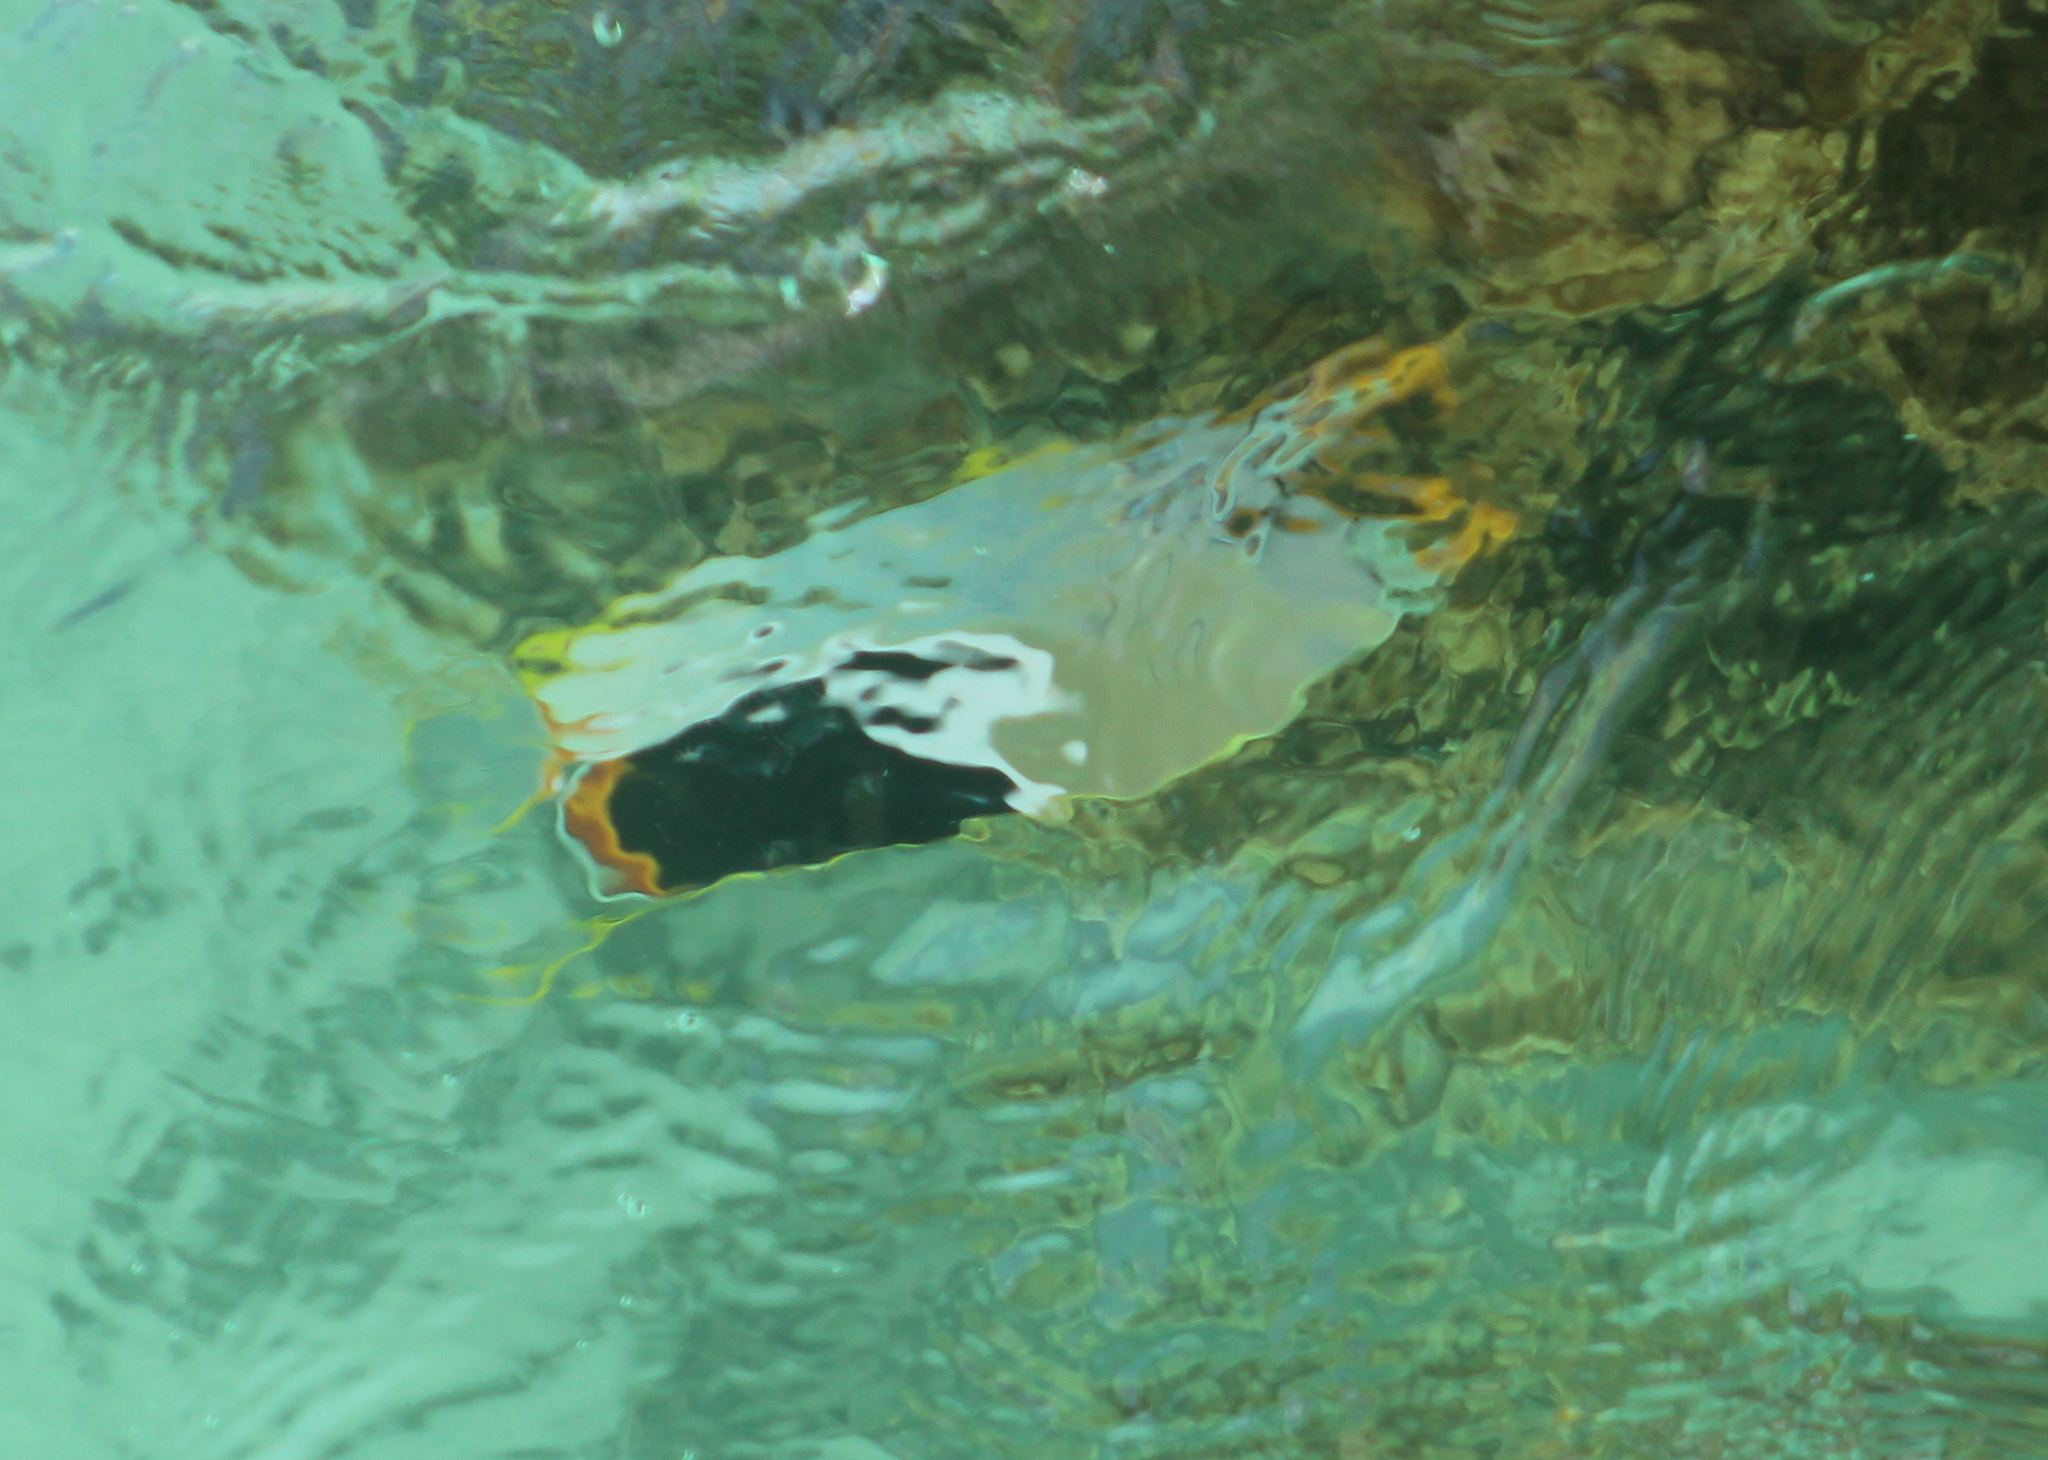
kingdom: Animalia
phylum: Chordata
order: Perciformes
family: Chaetodontidae
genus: Chaetodon
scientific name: Chaetodon ephippium
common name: Saddled butterflyfish
